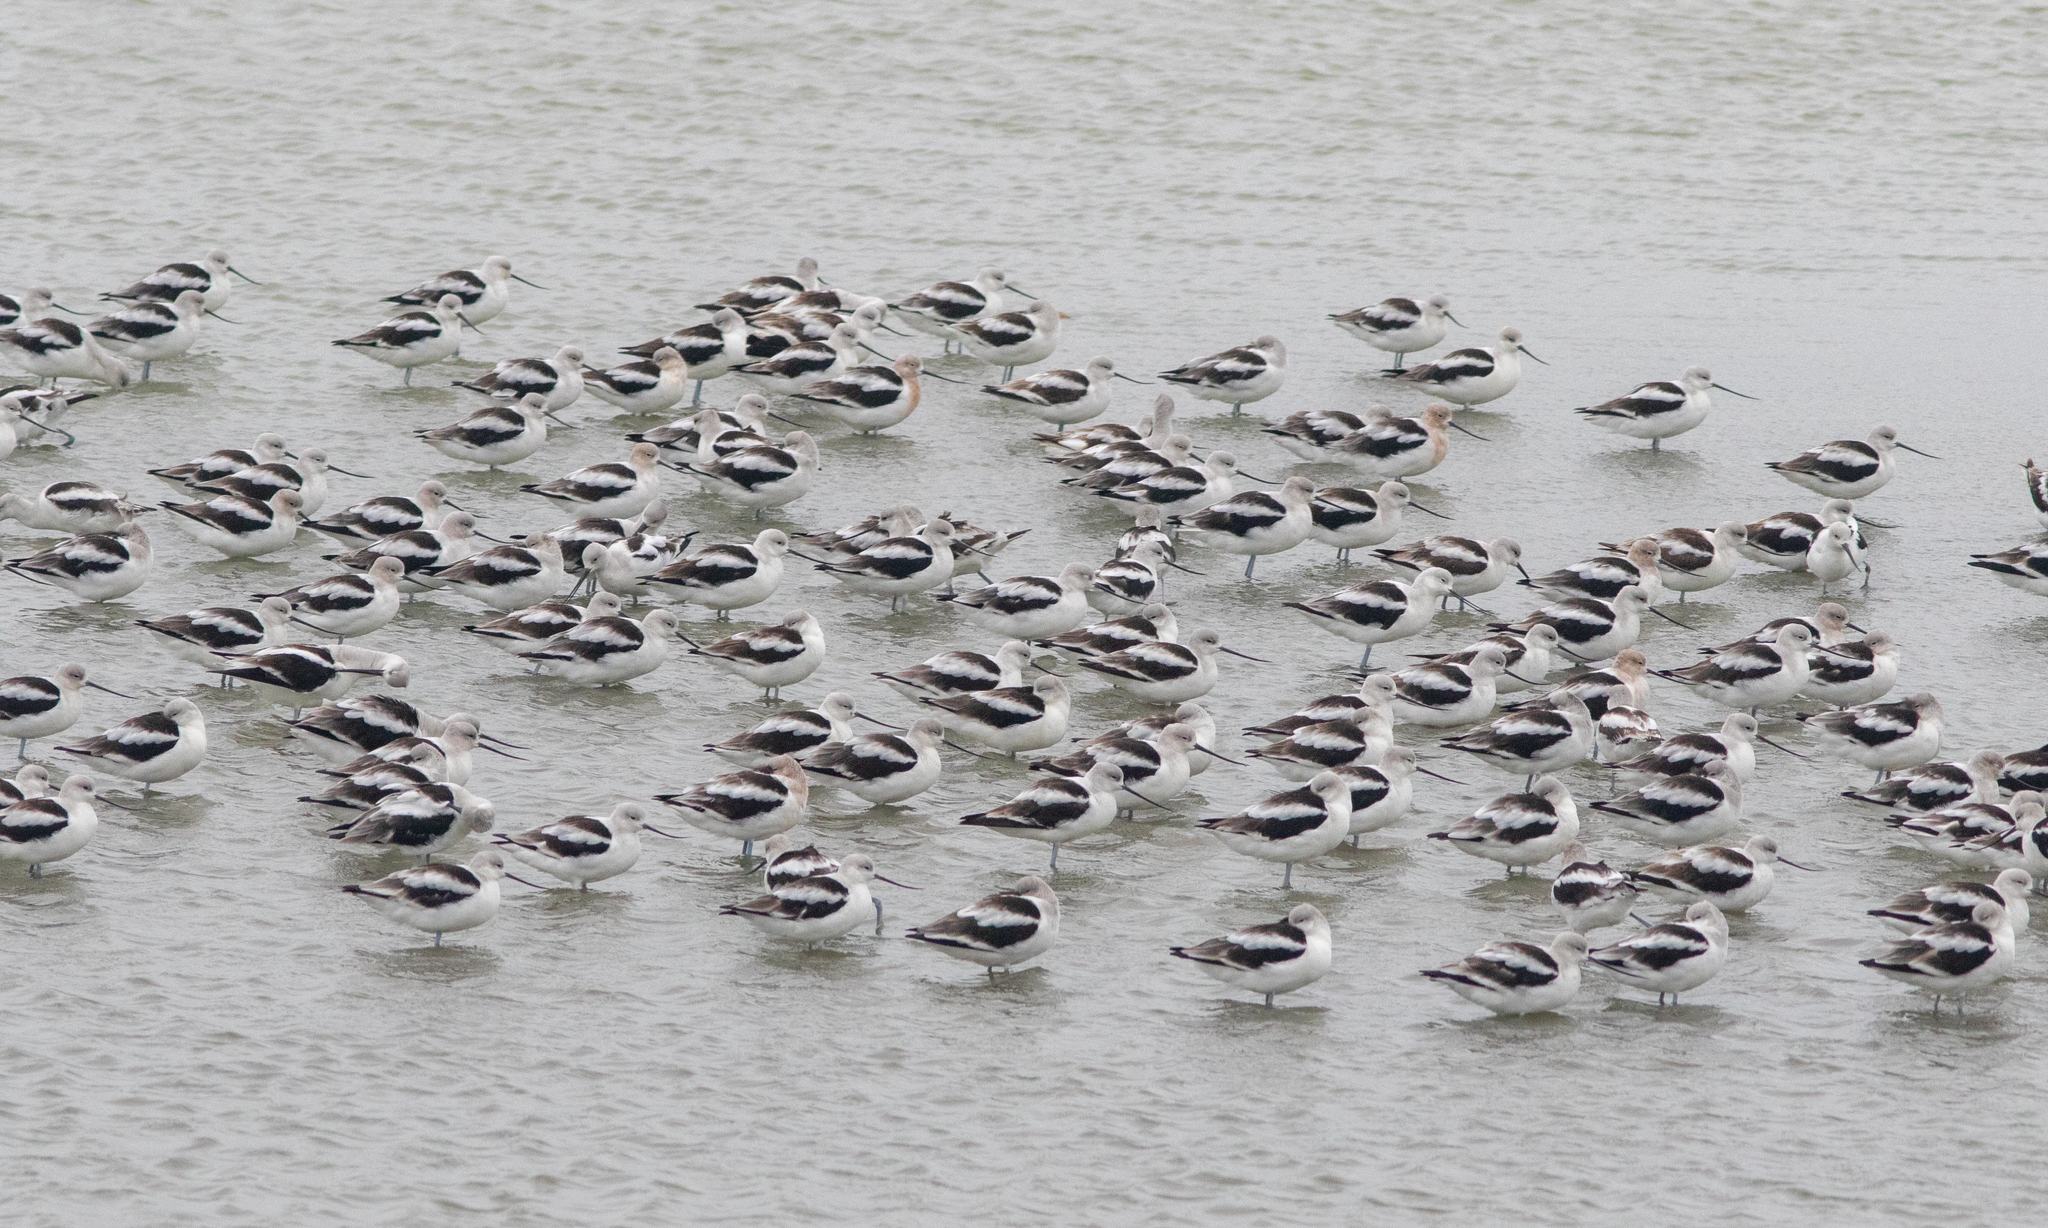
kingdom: Animalia
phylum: Chordata
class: Aves
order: Charadriiformes
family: Recurvirostridae
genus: Recurvirostra
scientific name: Recurvirostra americana
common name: American avocet
